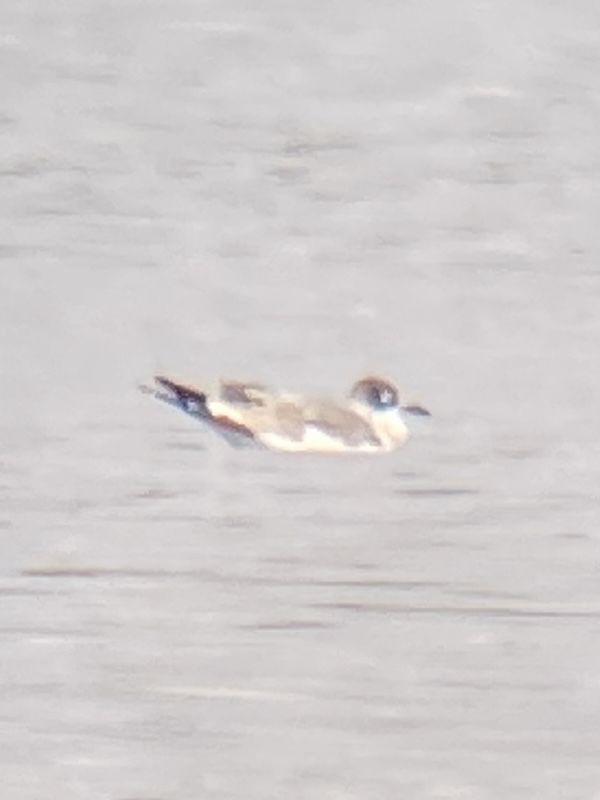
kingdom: Animalia
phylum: Chordata
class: Aves
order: Charadriiformes
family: Laridae
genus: Leucophaeus
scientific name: Leucophaeus pipixcan
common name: Franklin's gull
